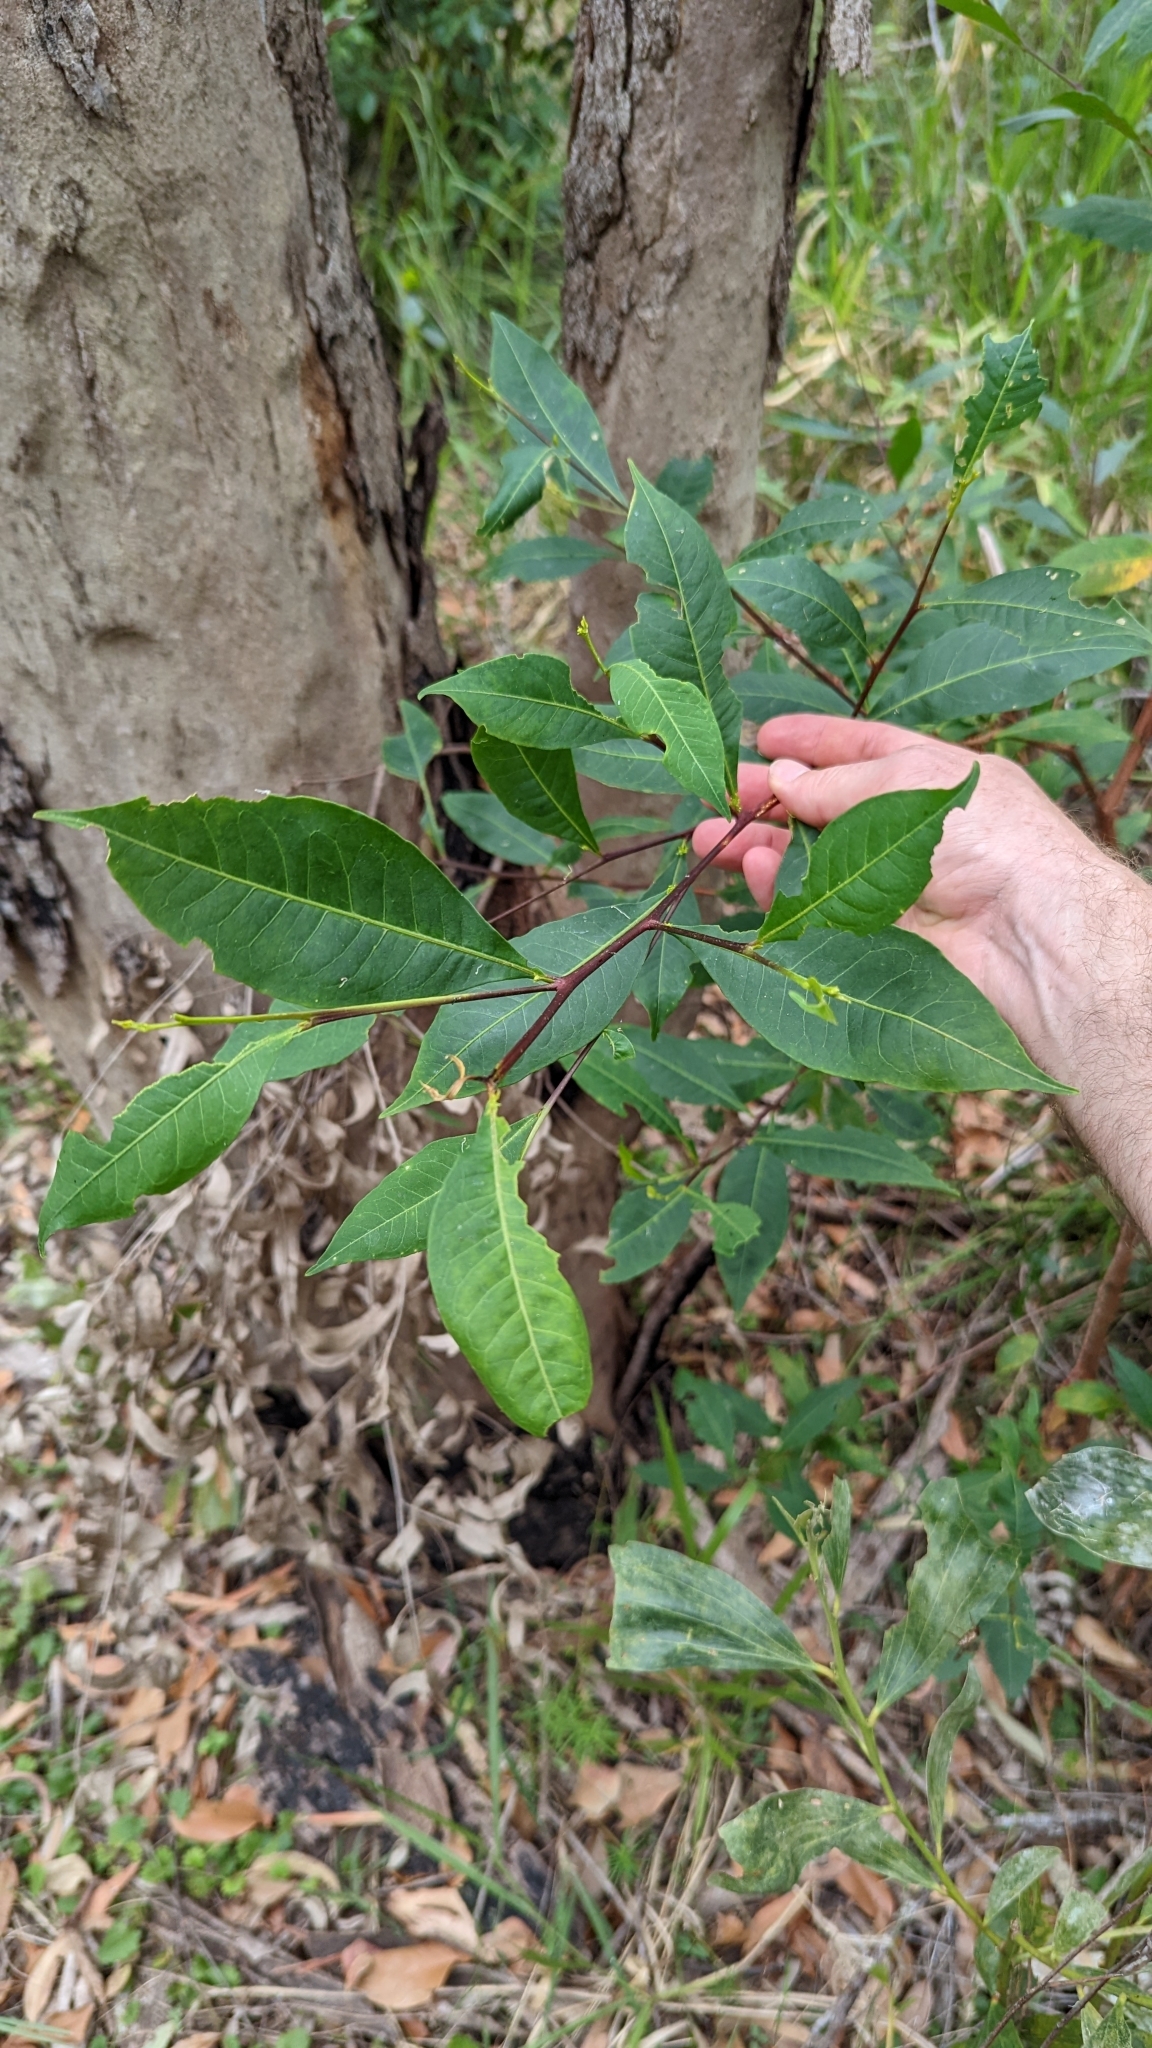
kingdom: Plantae
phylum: Tracheophyta
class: Magnoliopsida
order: Sapindales
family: Sapindaceae
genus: Dodonaea
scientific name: Dodonaea triquetra
